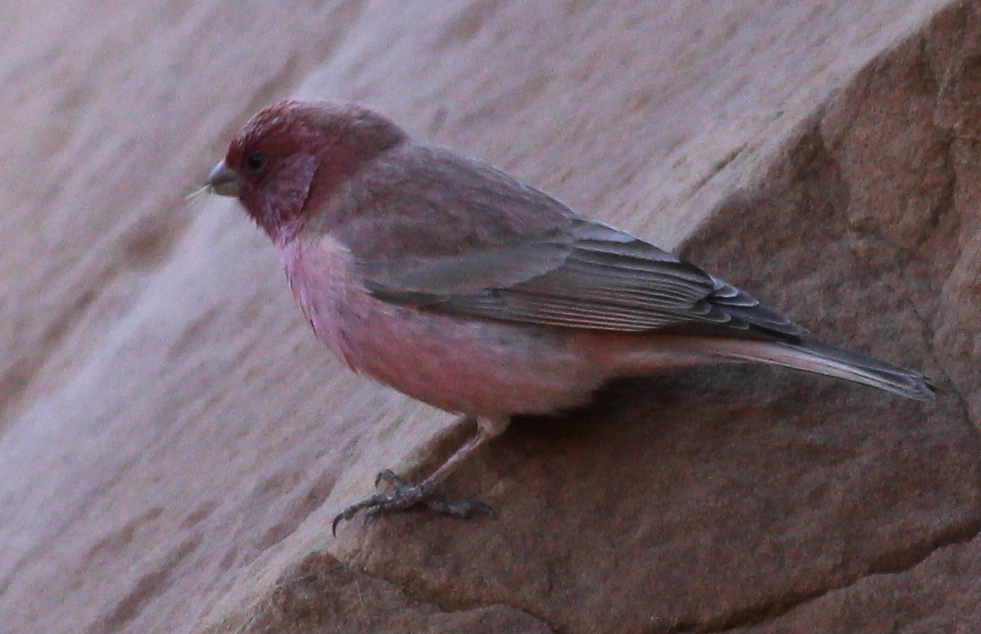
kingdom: Animalia
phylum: Chordata
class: Aves
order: Passeriformes
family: Fringillidae
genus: Carpodacus
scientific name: Carpodacus synoicus
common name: Sinai rosefinch
